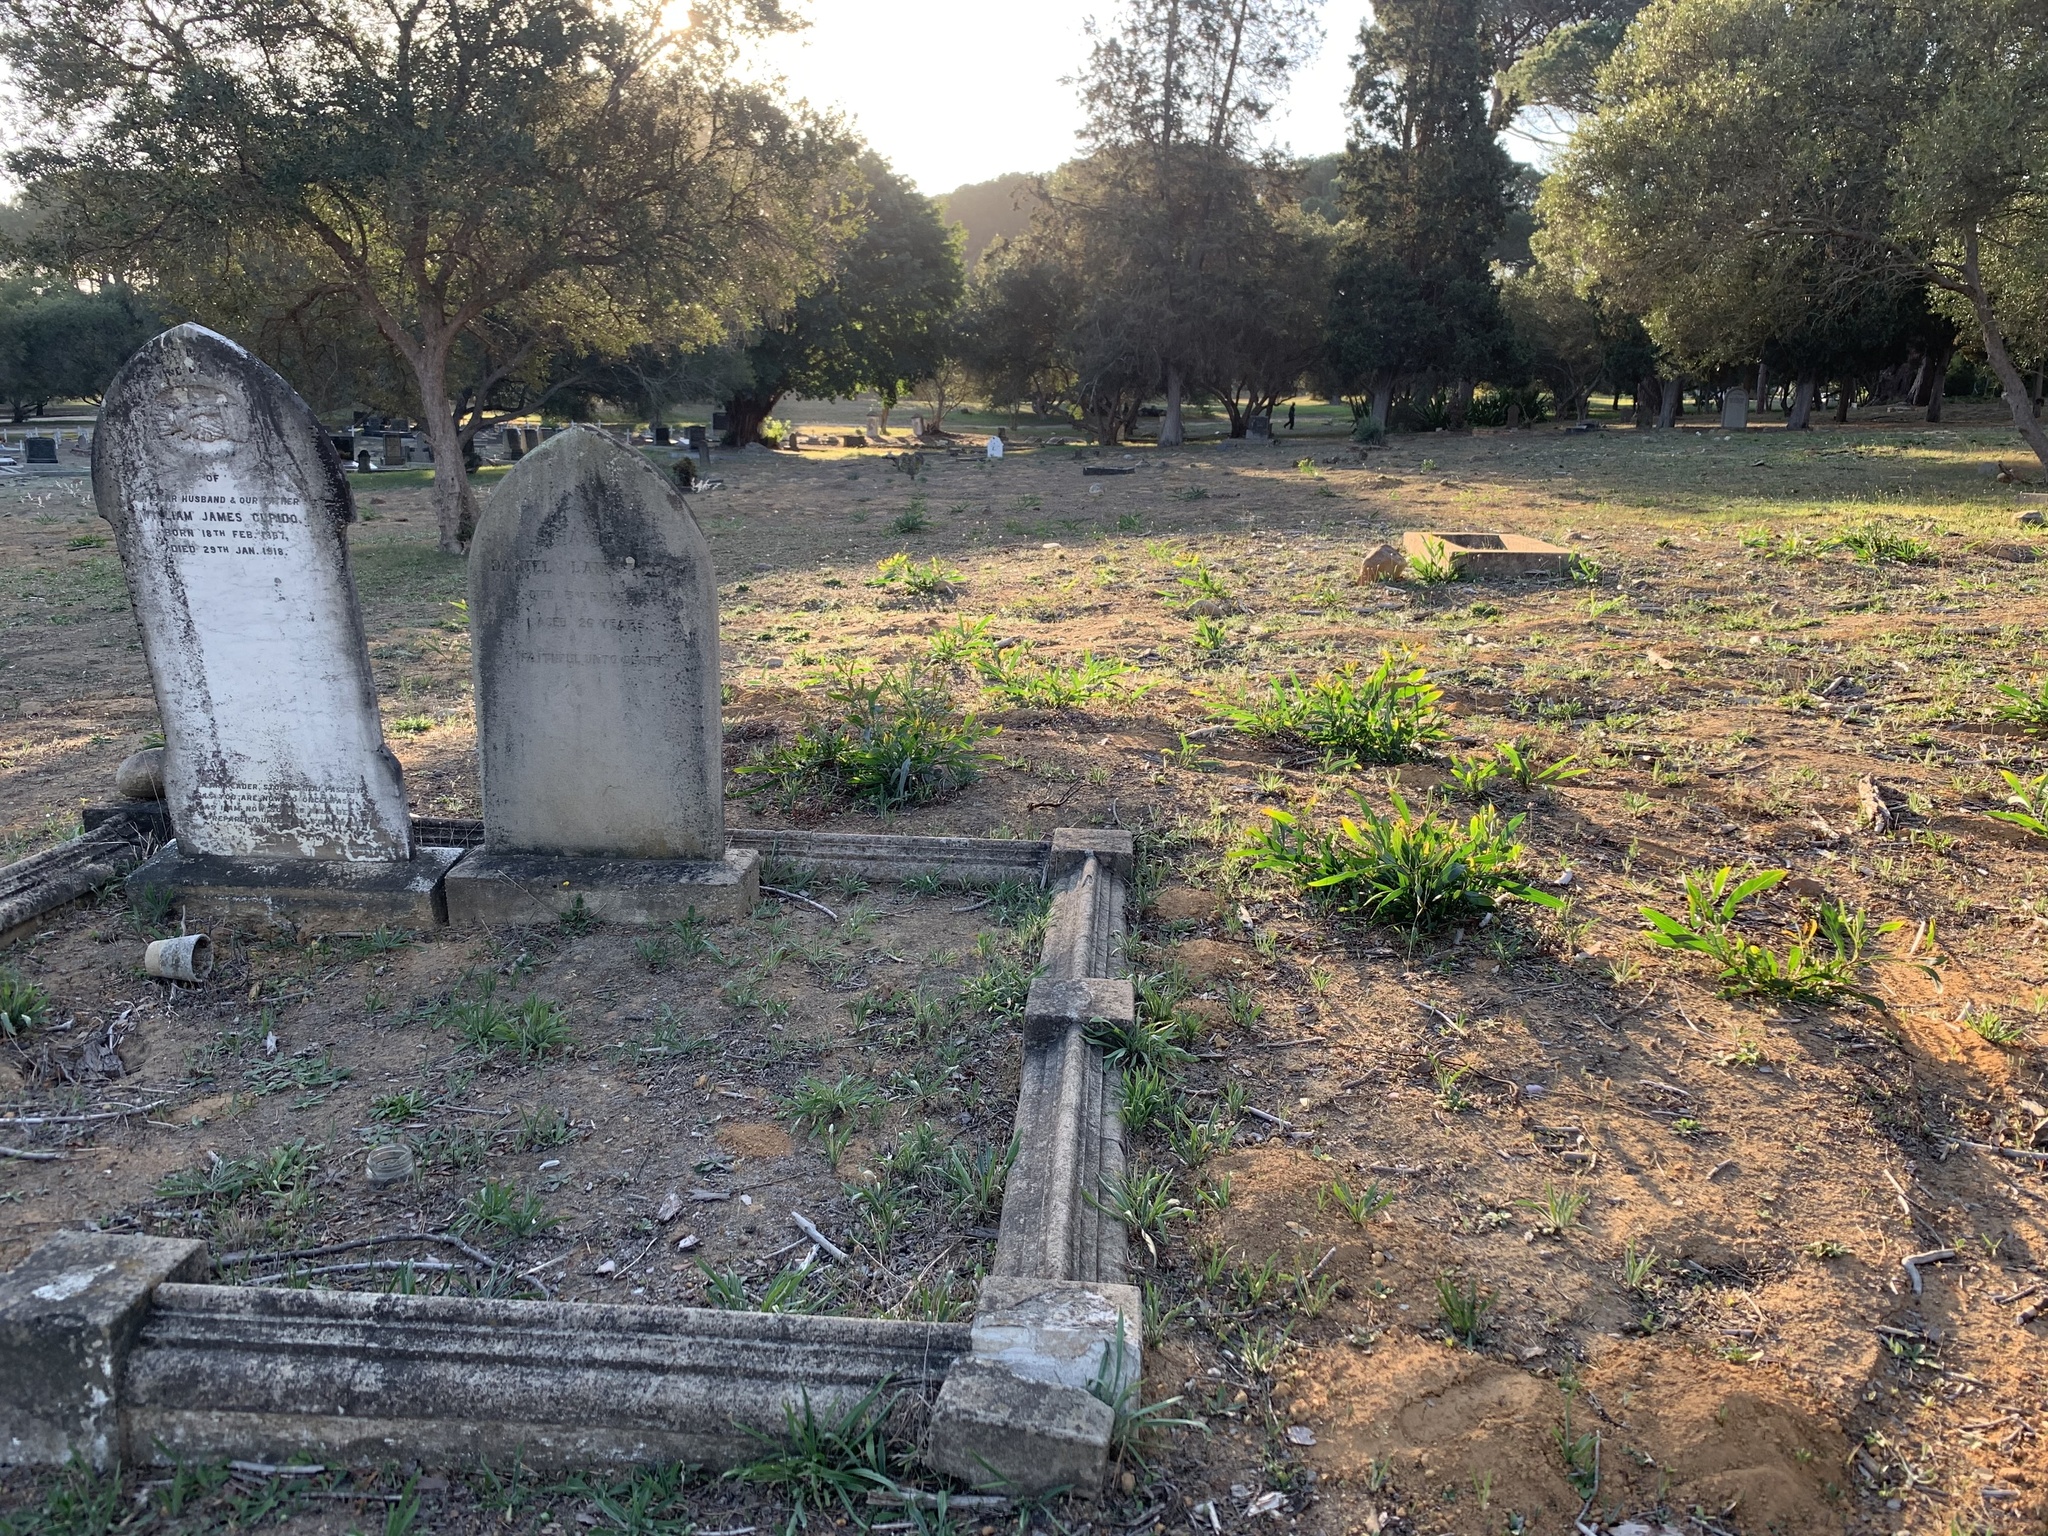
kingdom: Plantae
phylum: Tracheophyta
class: Magnoliopsida
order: Fabales
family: Fabaceae
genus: Acacia
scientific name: Acacia saligna
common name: Orange wattle
